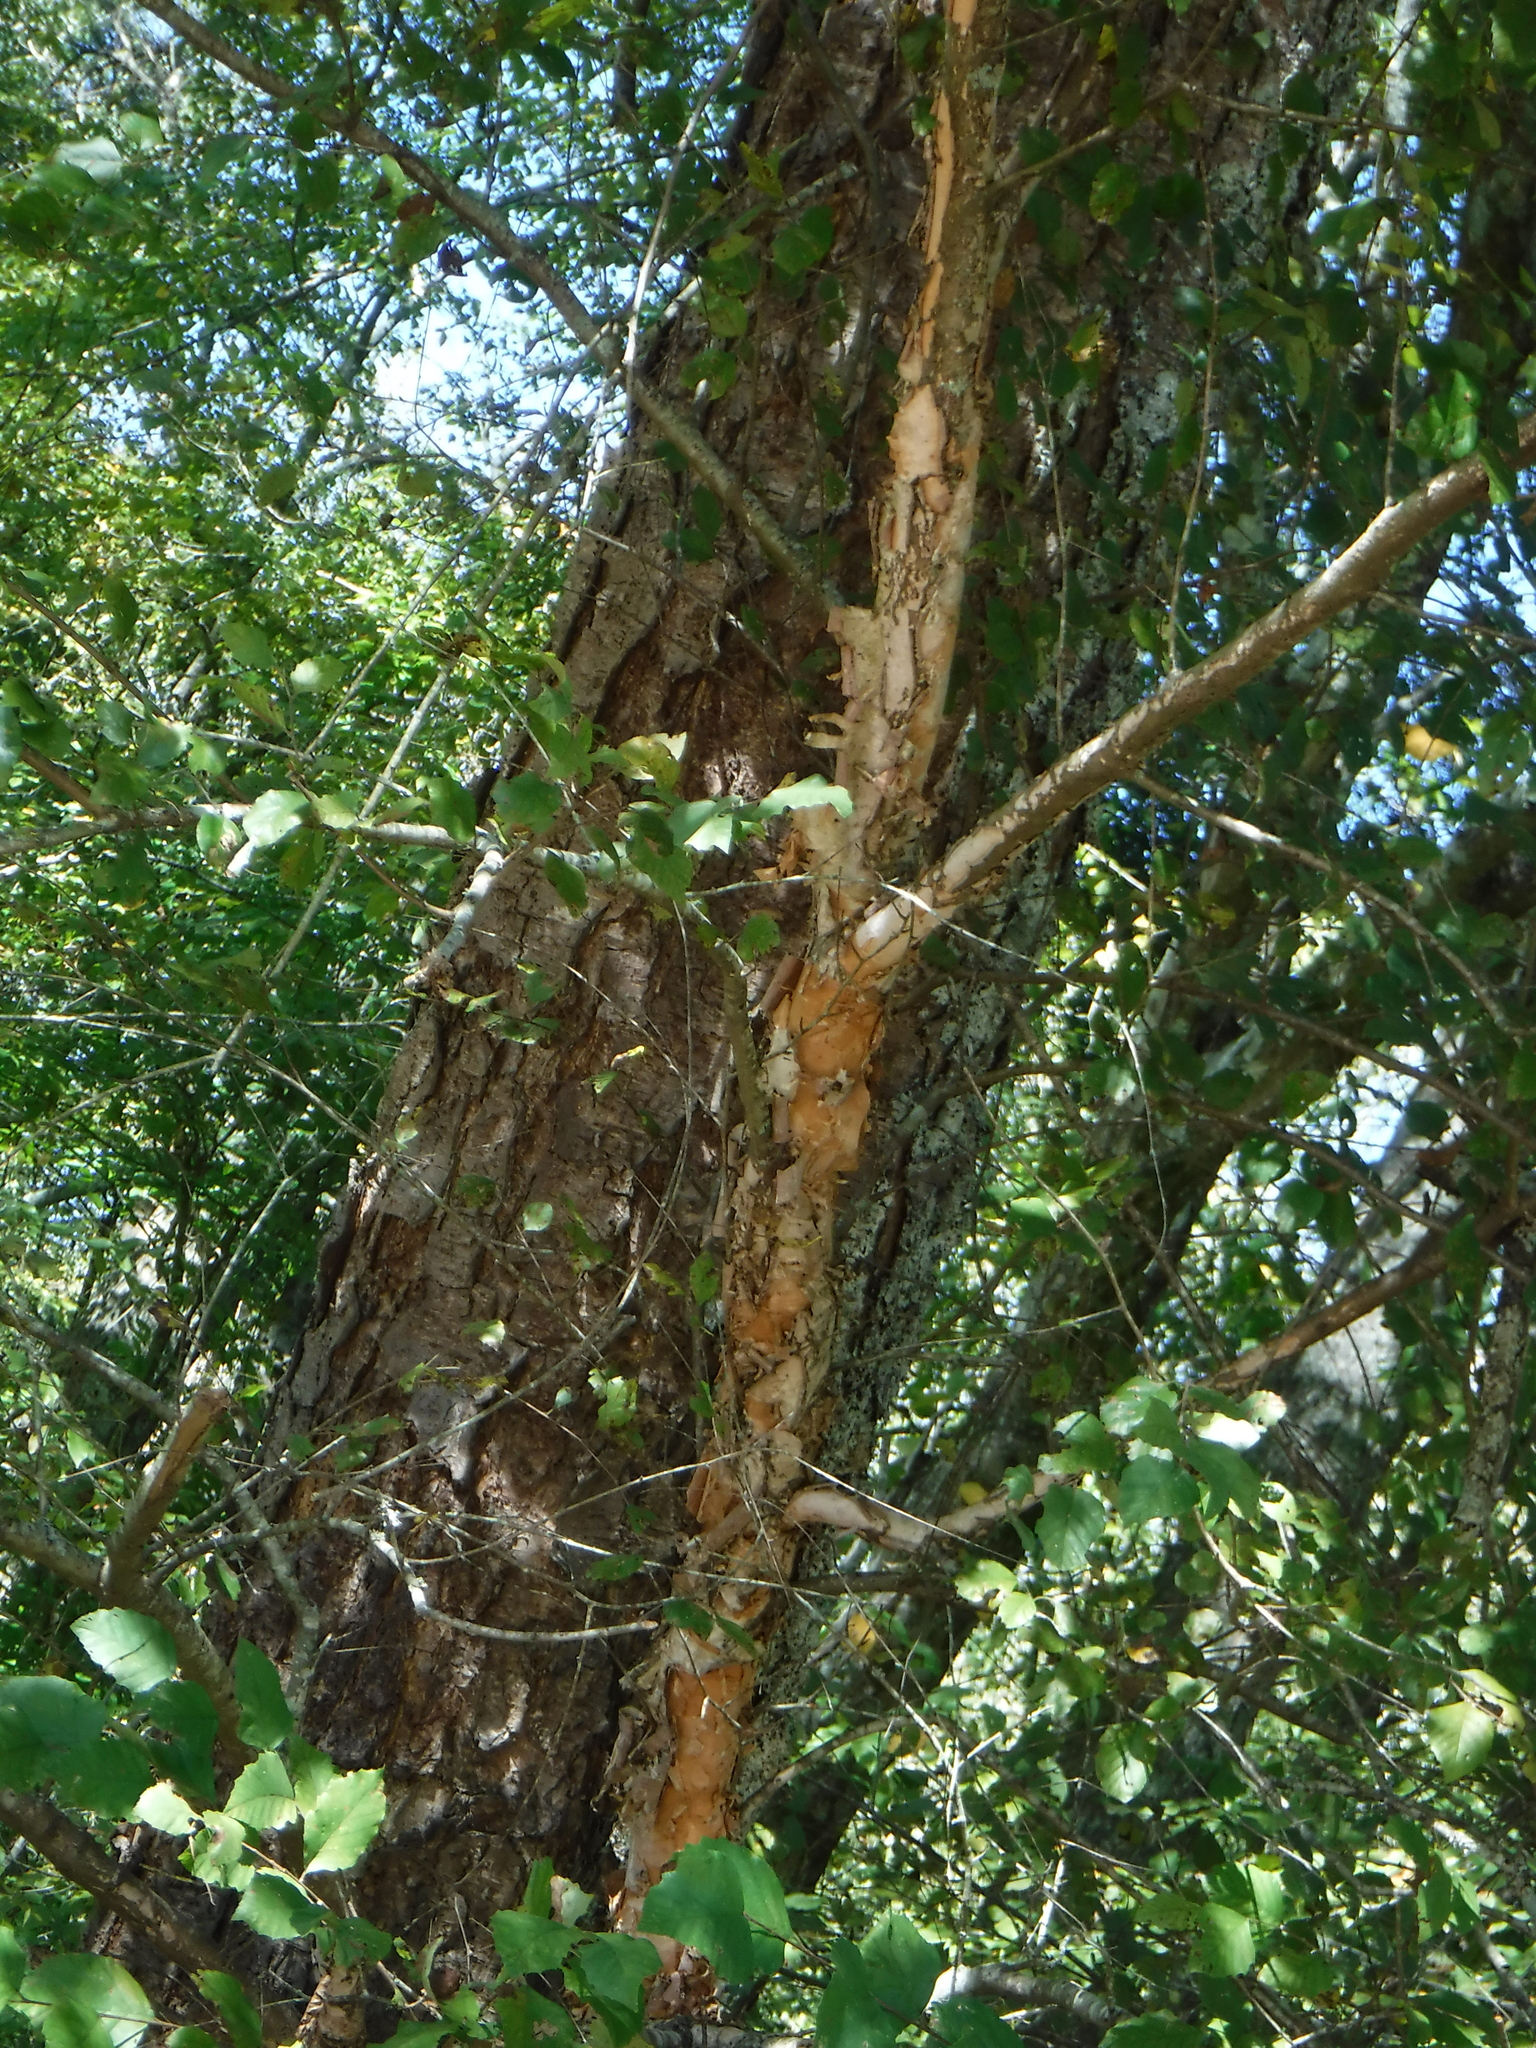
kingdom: Plantae
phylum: Tracheophyta
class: Magnoliopsida
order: Fagales
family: Betulaceae
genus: Betula
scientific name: Betula nigra
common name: Black birch
